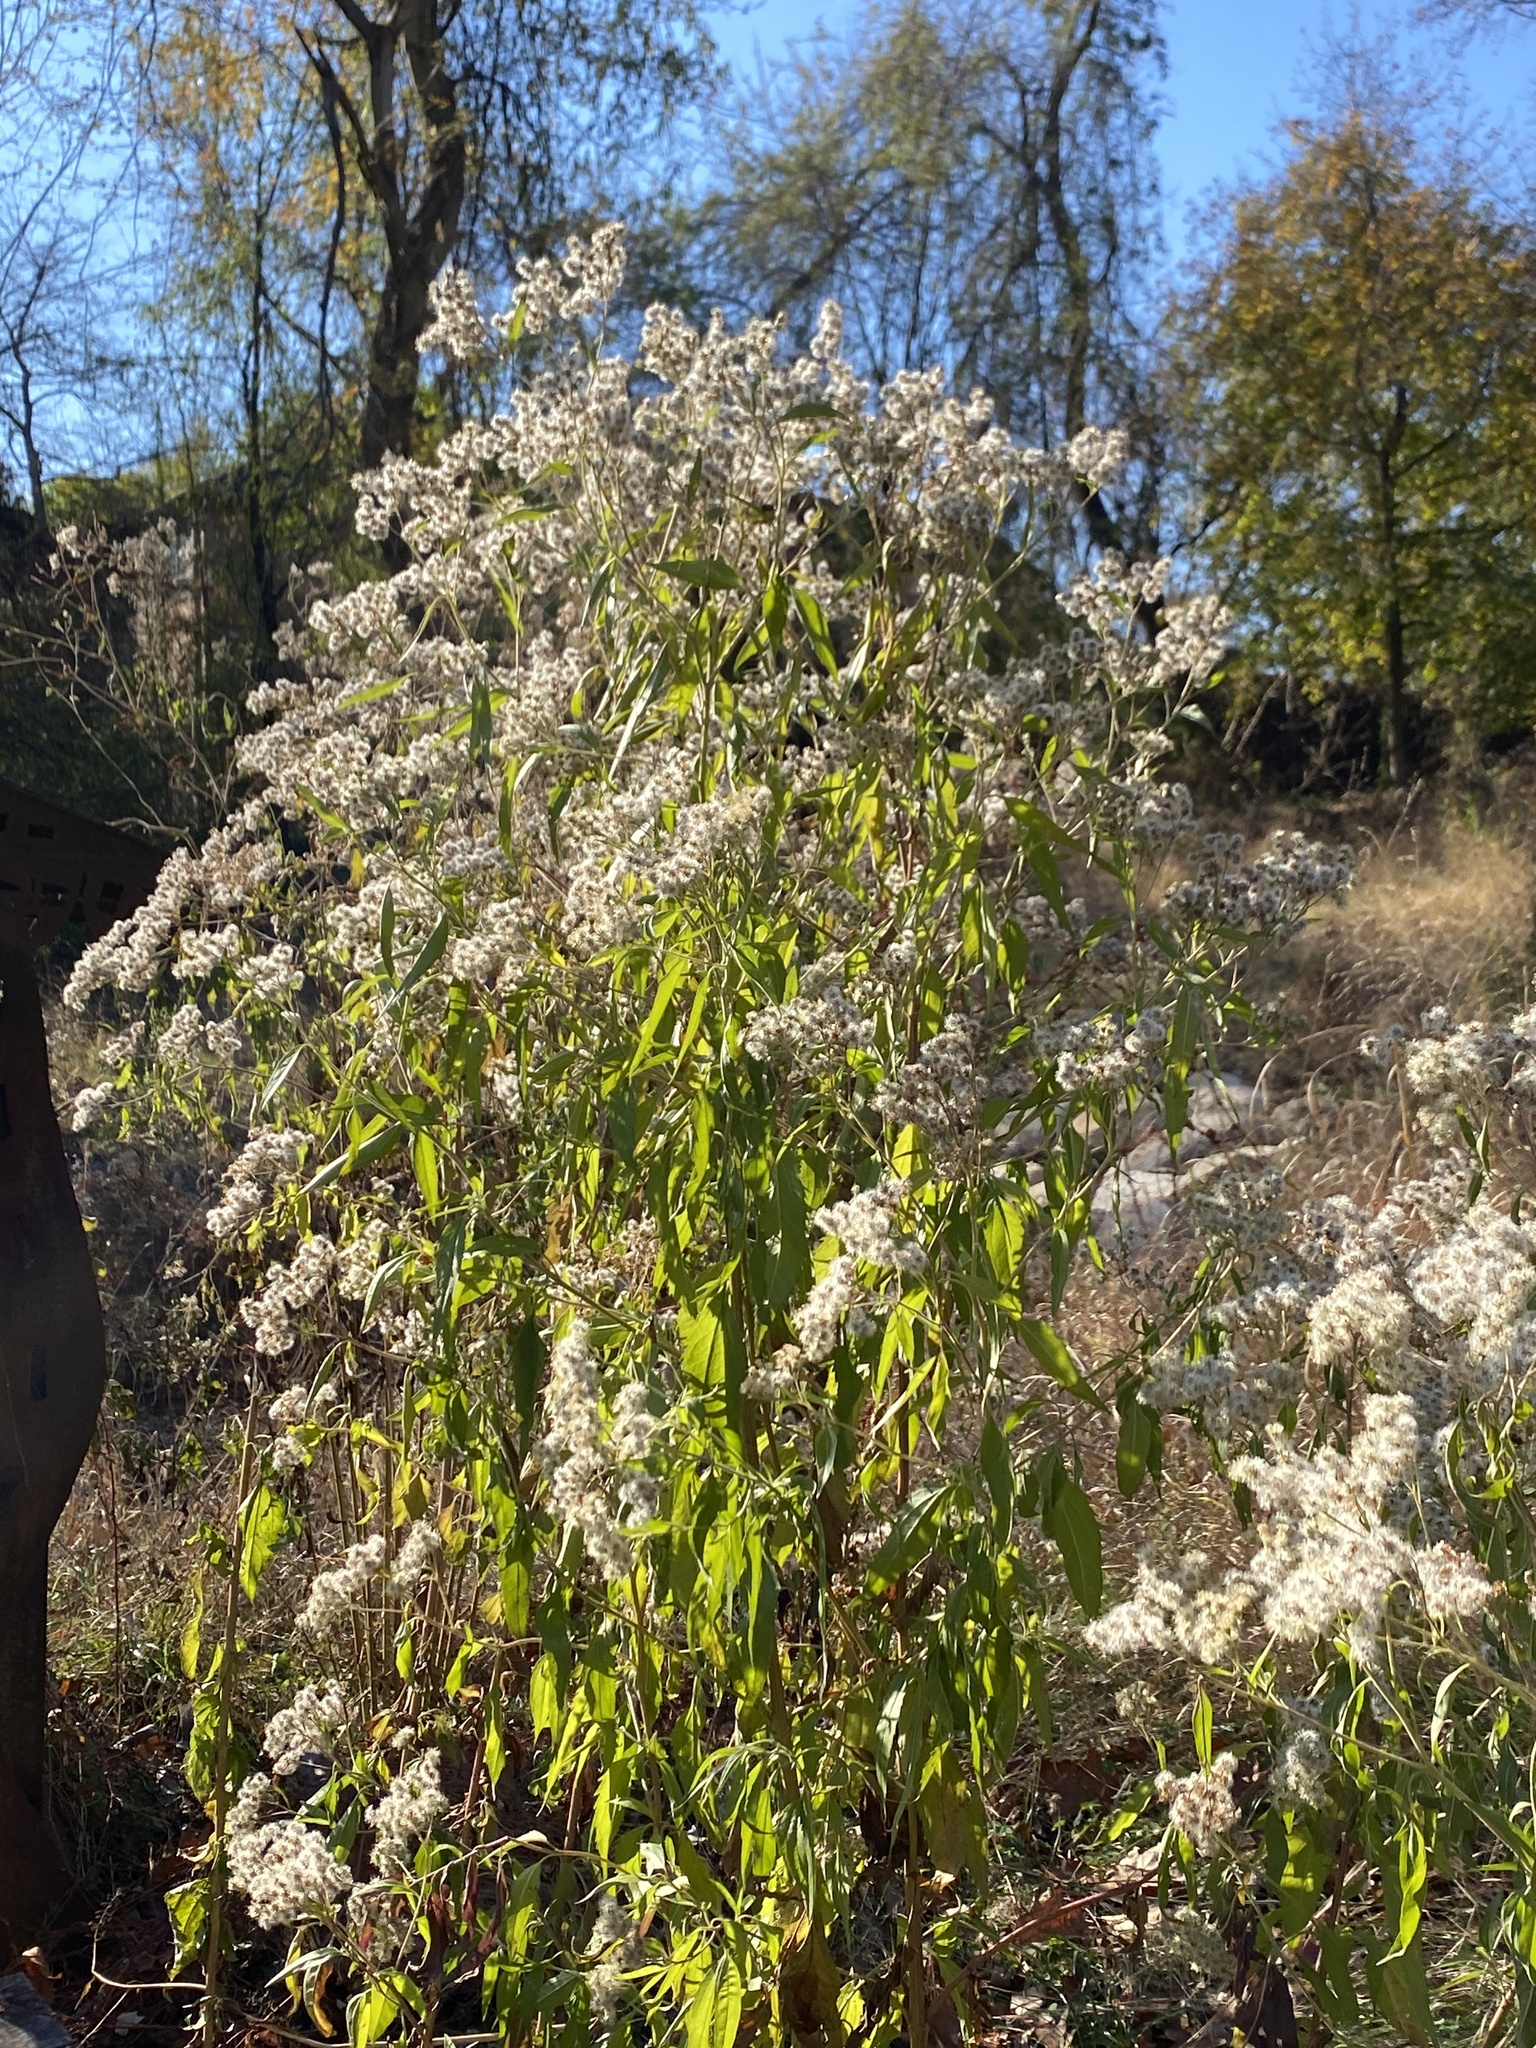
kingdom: Plantae
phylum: Tracheophyta
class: Magnoliopsida
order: Asterales
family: Asteraceae
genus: Eupatorium
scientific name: Eupatorium serotinum
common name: Late boneset
